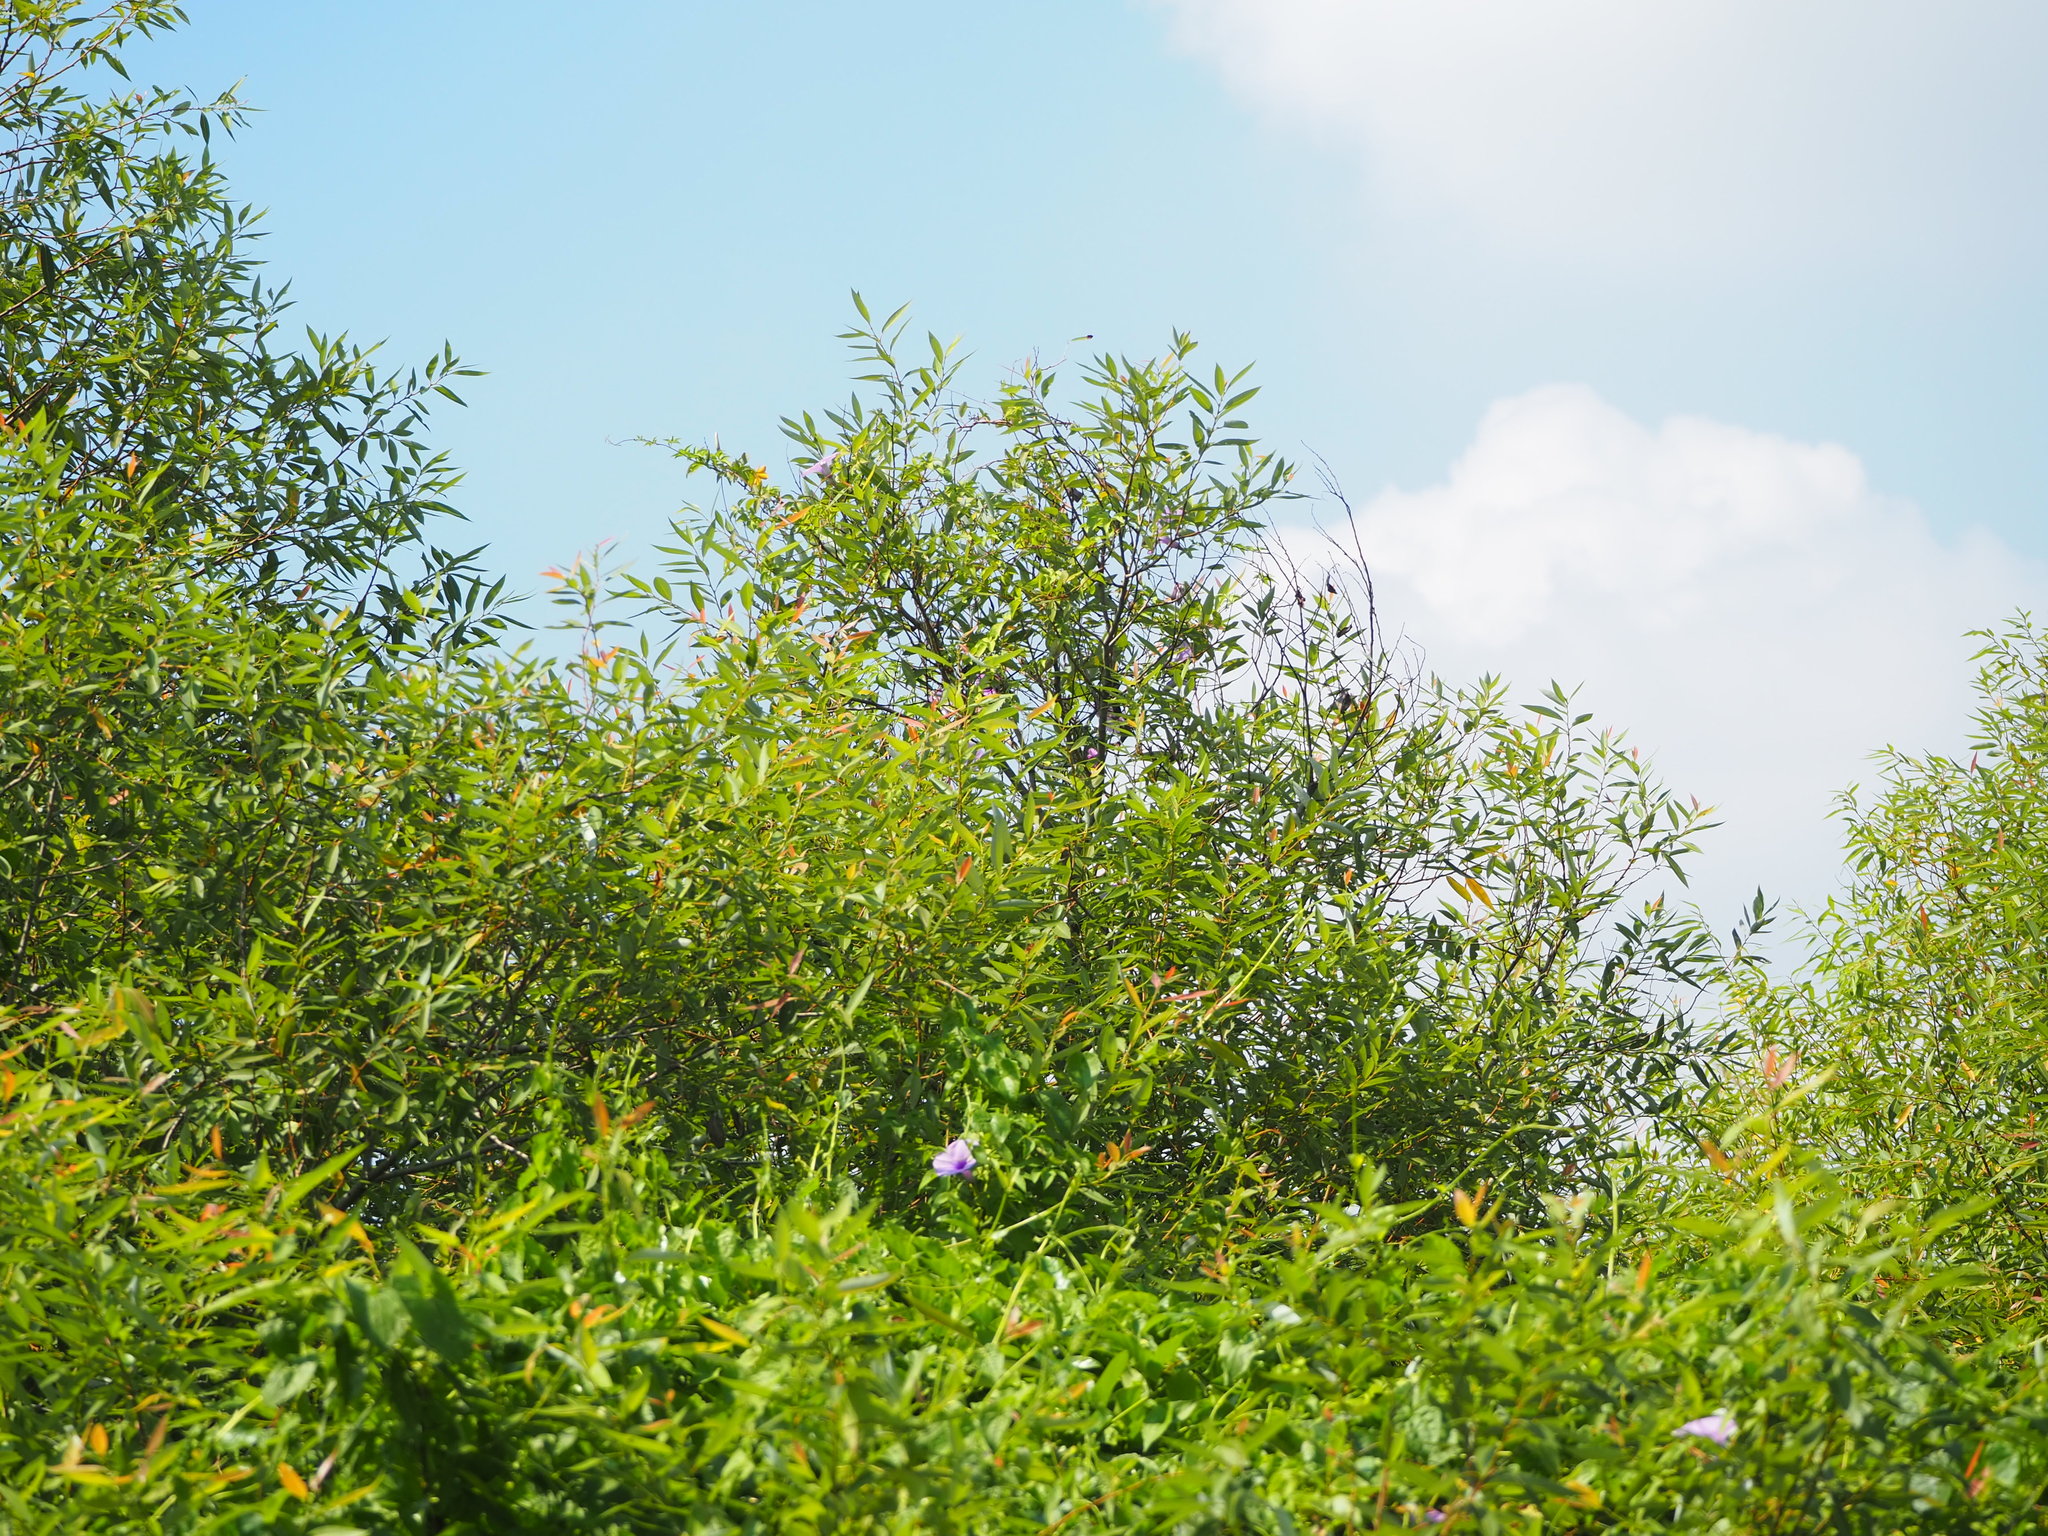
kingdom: Plantae
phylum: Tracheophyta
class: Magnoliopsida
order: Malpighiales
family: Salicaceae
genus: Salix
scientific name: Salix mesnyi
